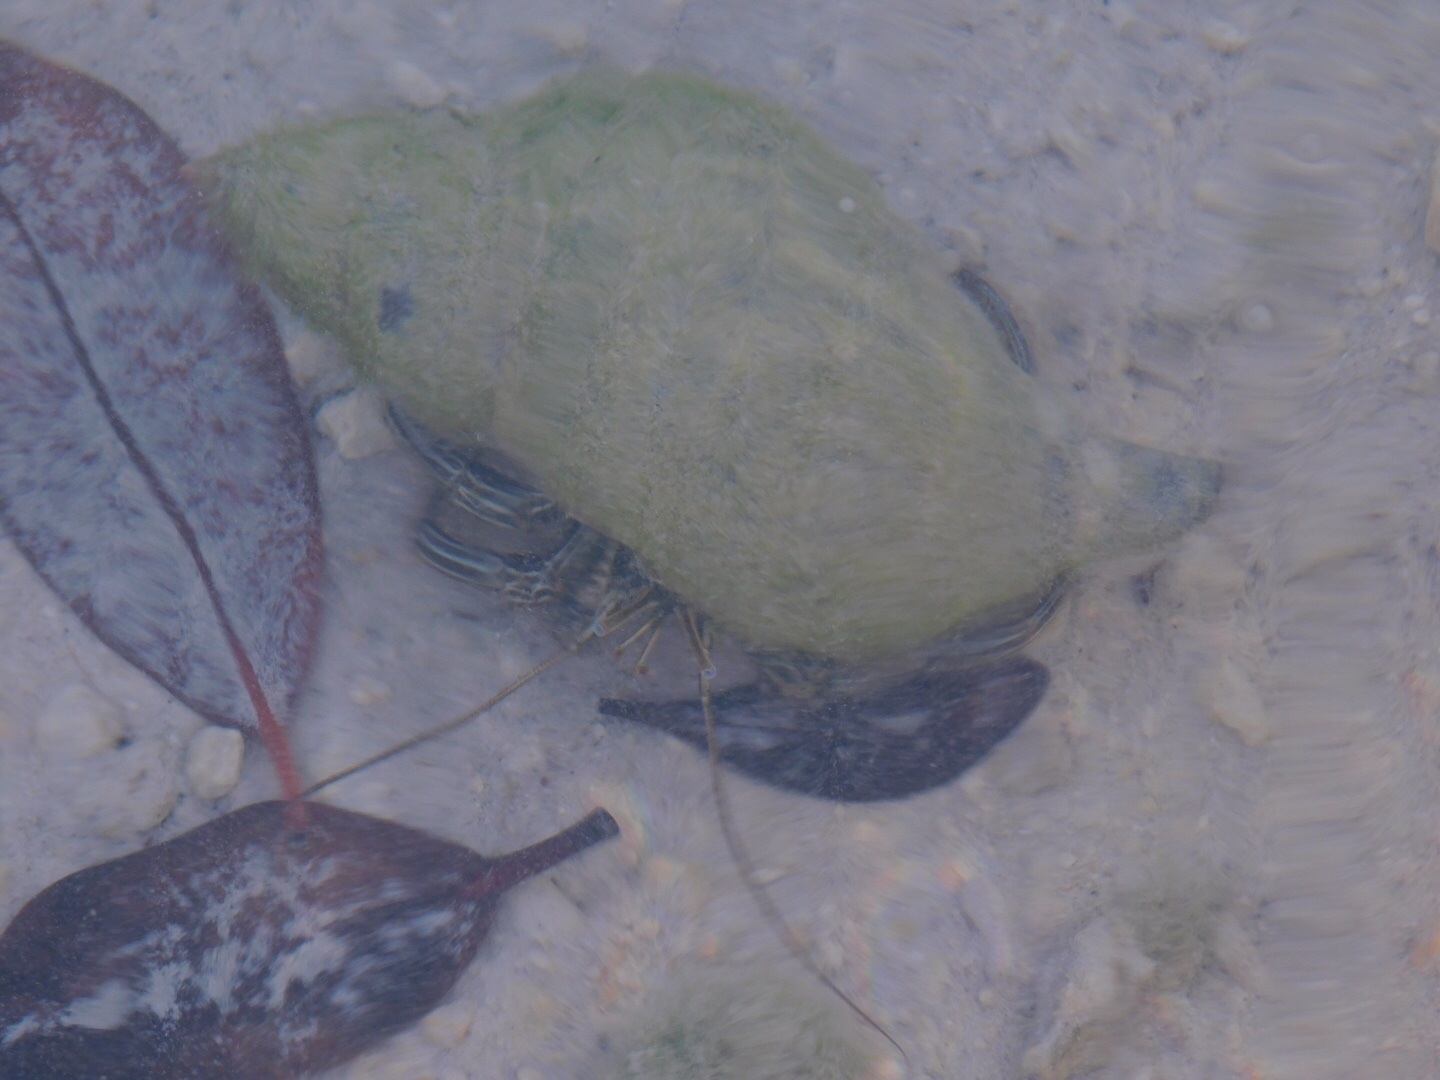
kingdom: Animalia
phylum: Arthropoda
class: Malacostraca
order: Decapoda
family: Diogenidae
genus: Clibanarius
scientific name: Clibanarius vittatus
